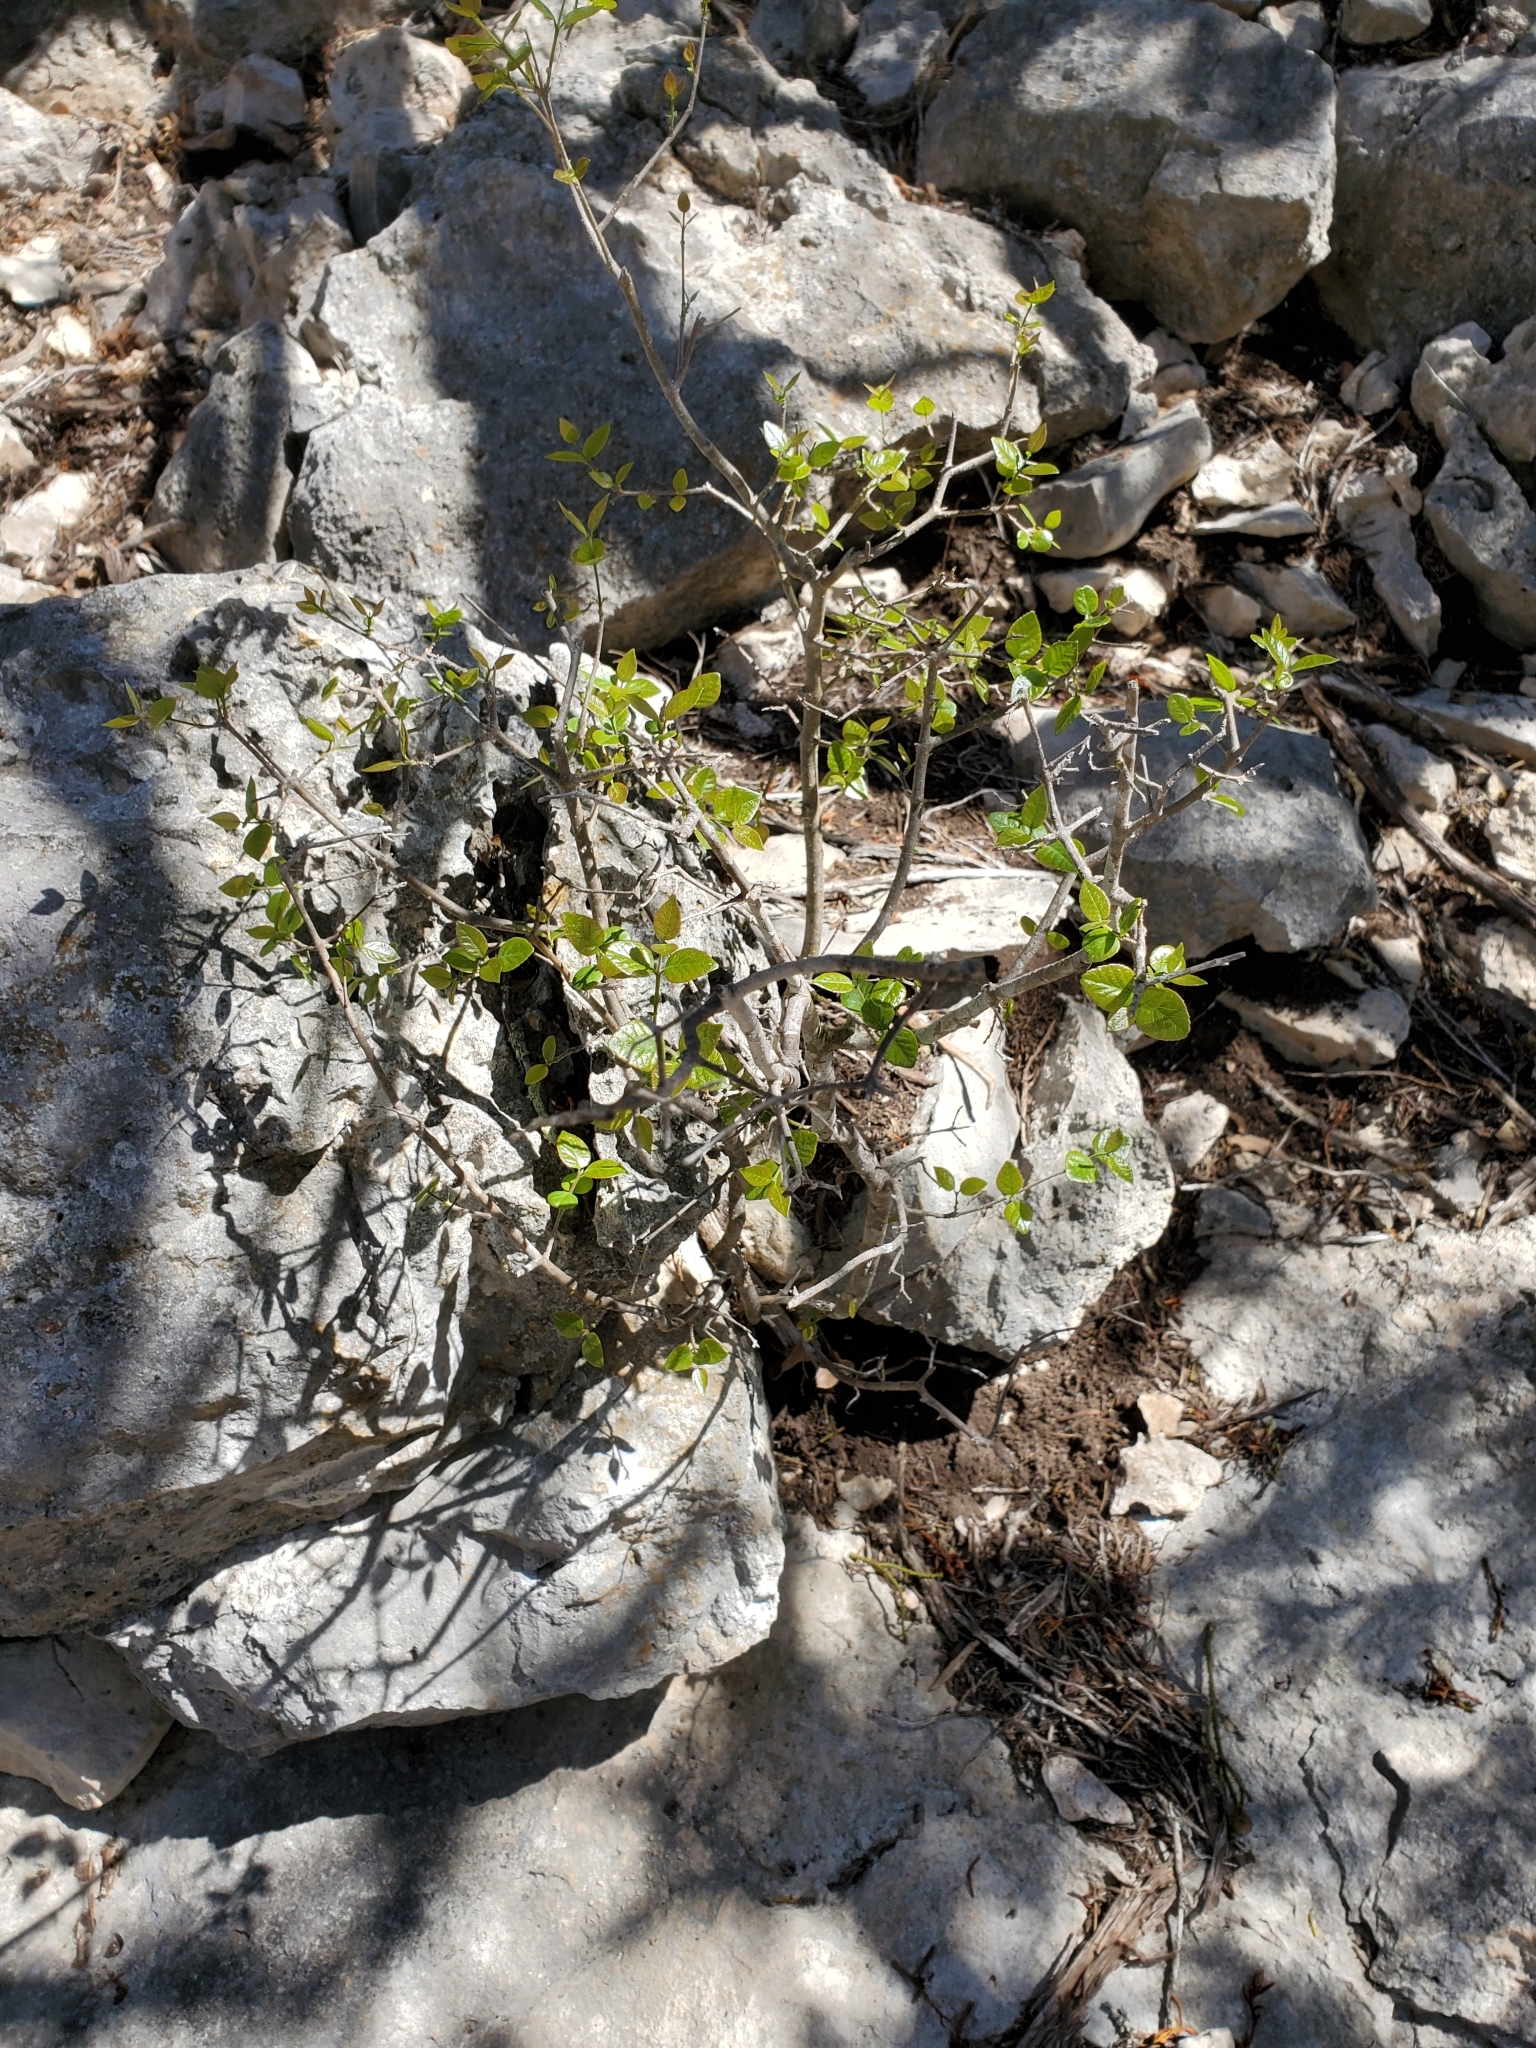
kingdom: Plantae
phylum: Tracheophyta
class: Magnoliopsida
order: Lamiales
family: Oleaceae
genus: Forestiera
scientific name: Forestiera reticulata
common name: Netleaf swamp-privet
